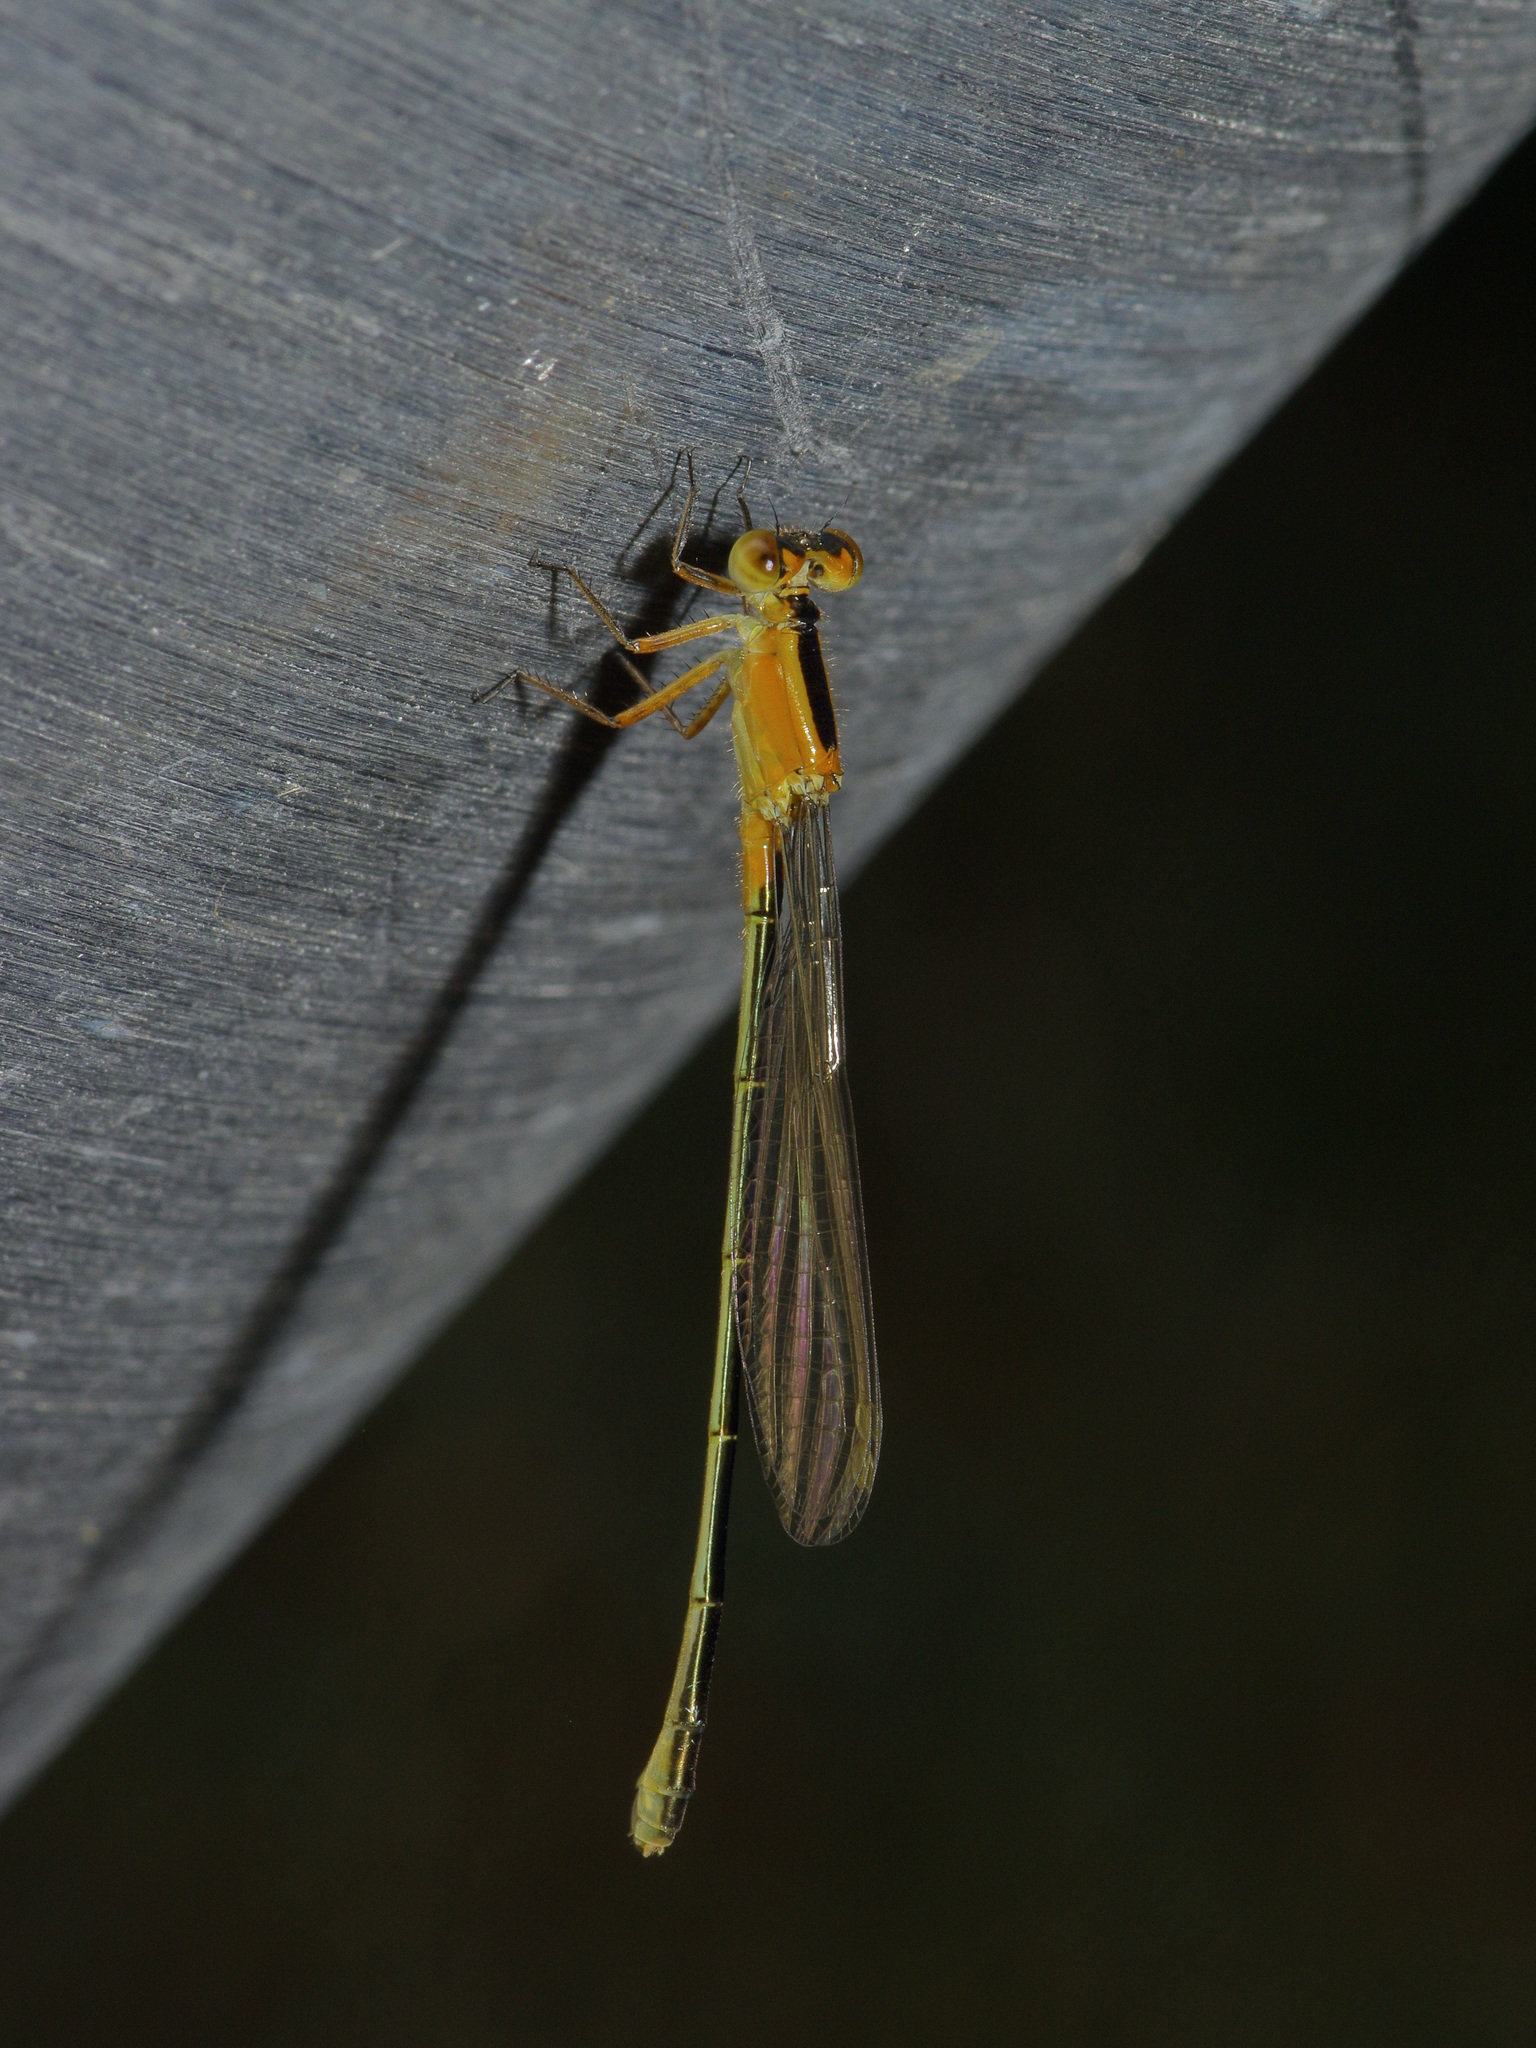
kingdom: Animalia
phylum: Arthropoda
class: Insecta
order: Odonata
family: Coenagrionidae
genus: Ischnura
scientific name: Ischnura ramburii
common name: Rambur's forktail
